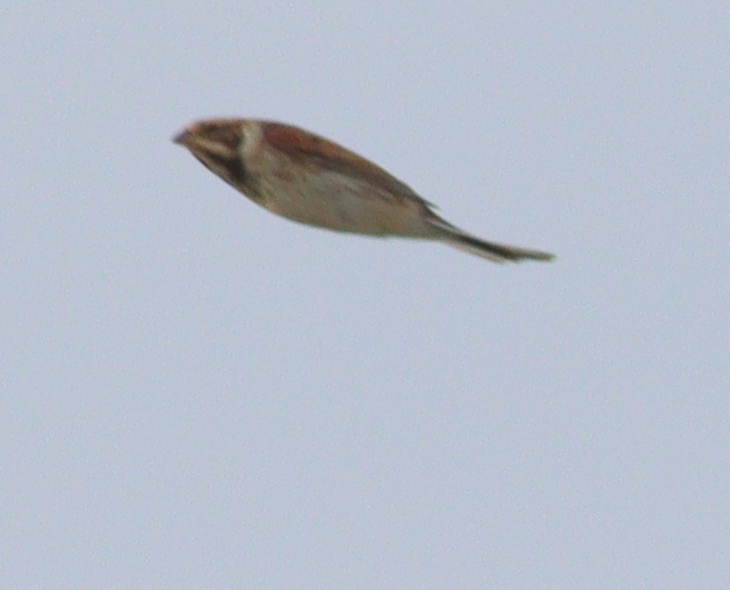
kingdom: Animalia
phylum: Chordata
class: Aves
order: Passeriformes
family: Emberizidae
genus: Emberiza
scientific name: Emberiza schoeniclus
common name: Reed bunting
